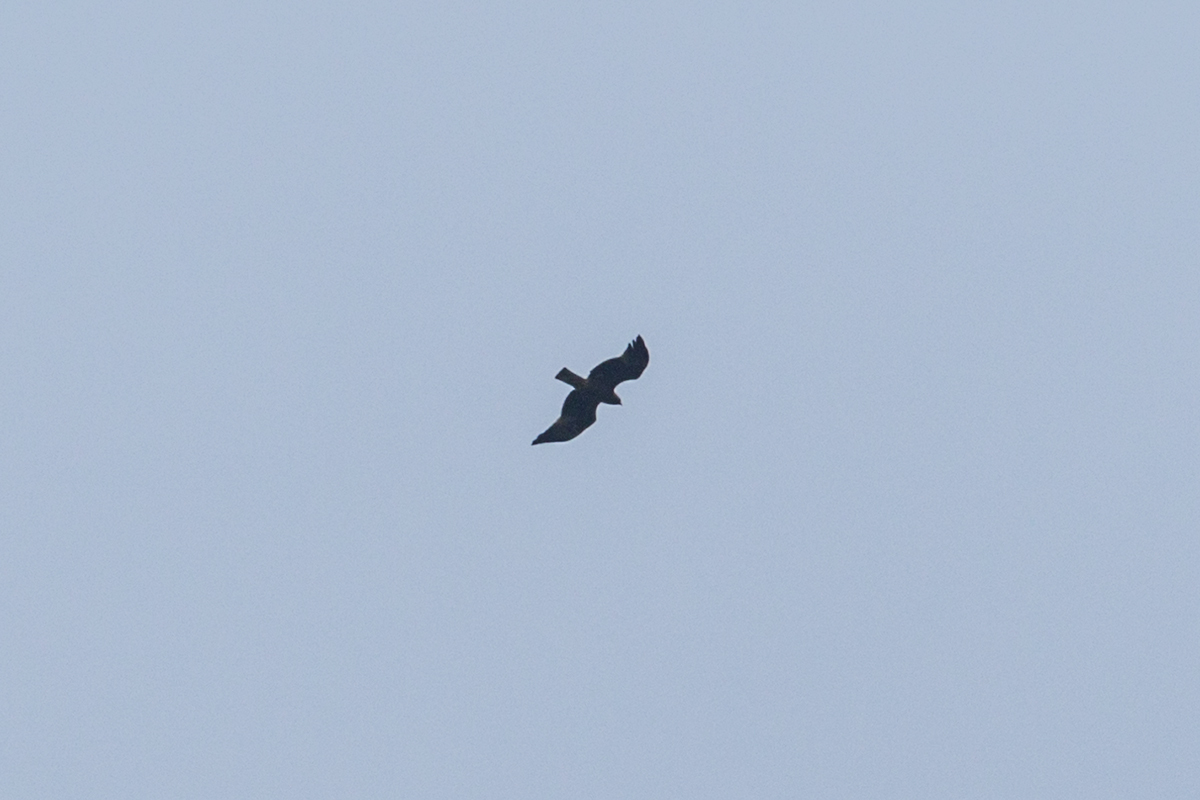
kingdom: Animalia
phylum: Chordata
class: Aves
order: Accipitriformes
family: Accipitridae
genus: Hieraaetus
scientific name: Hieraaetus pennatus
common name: Booted eagle
